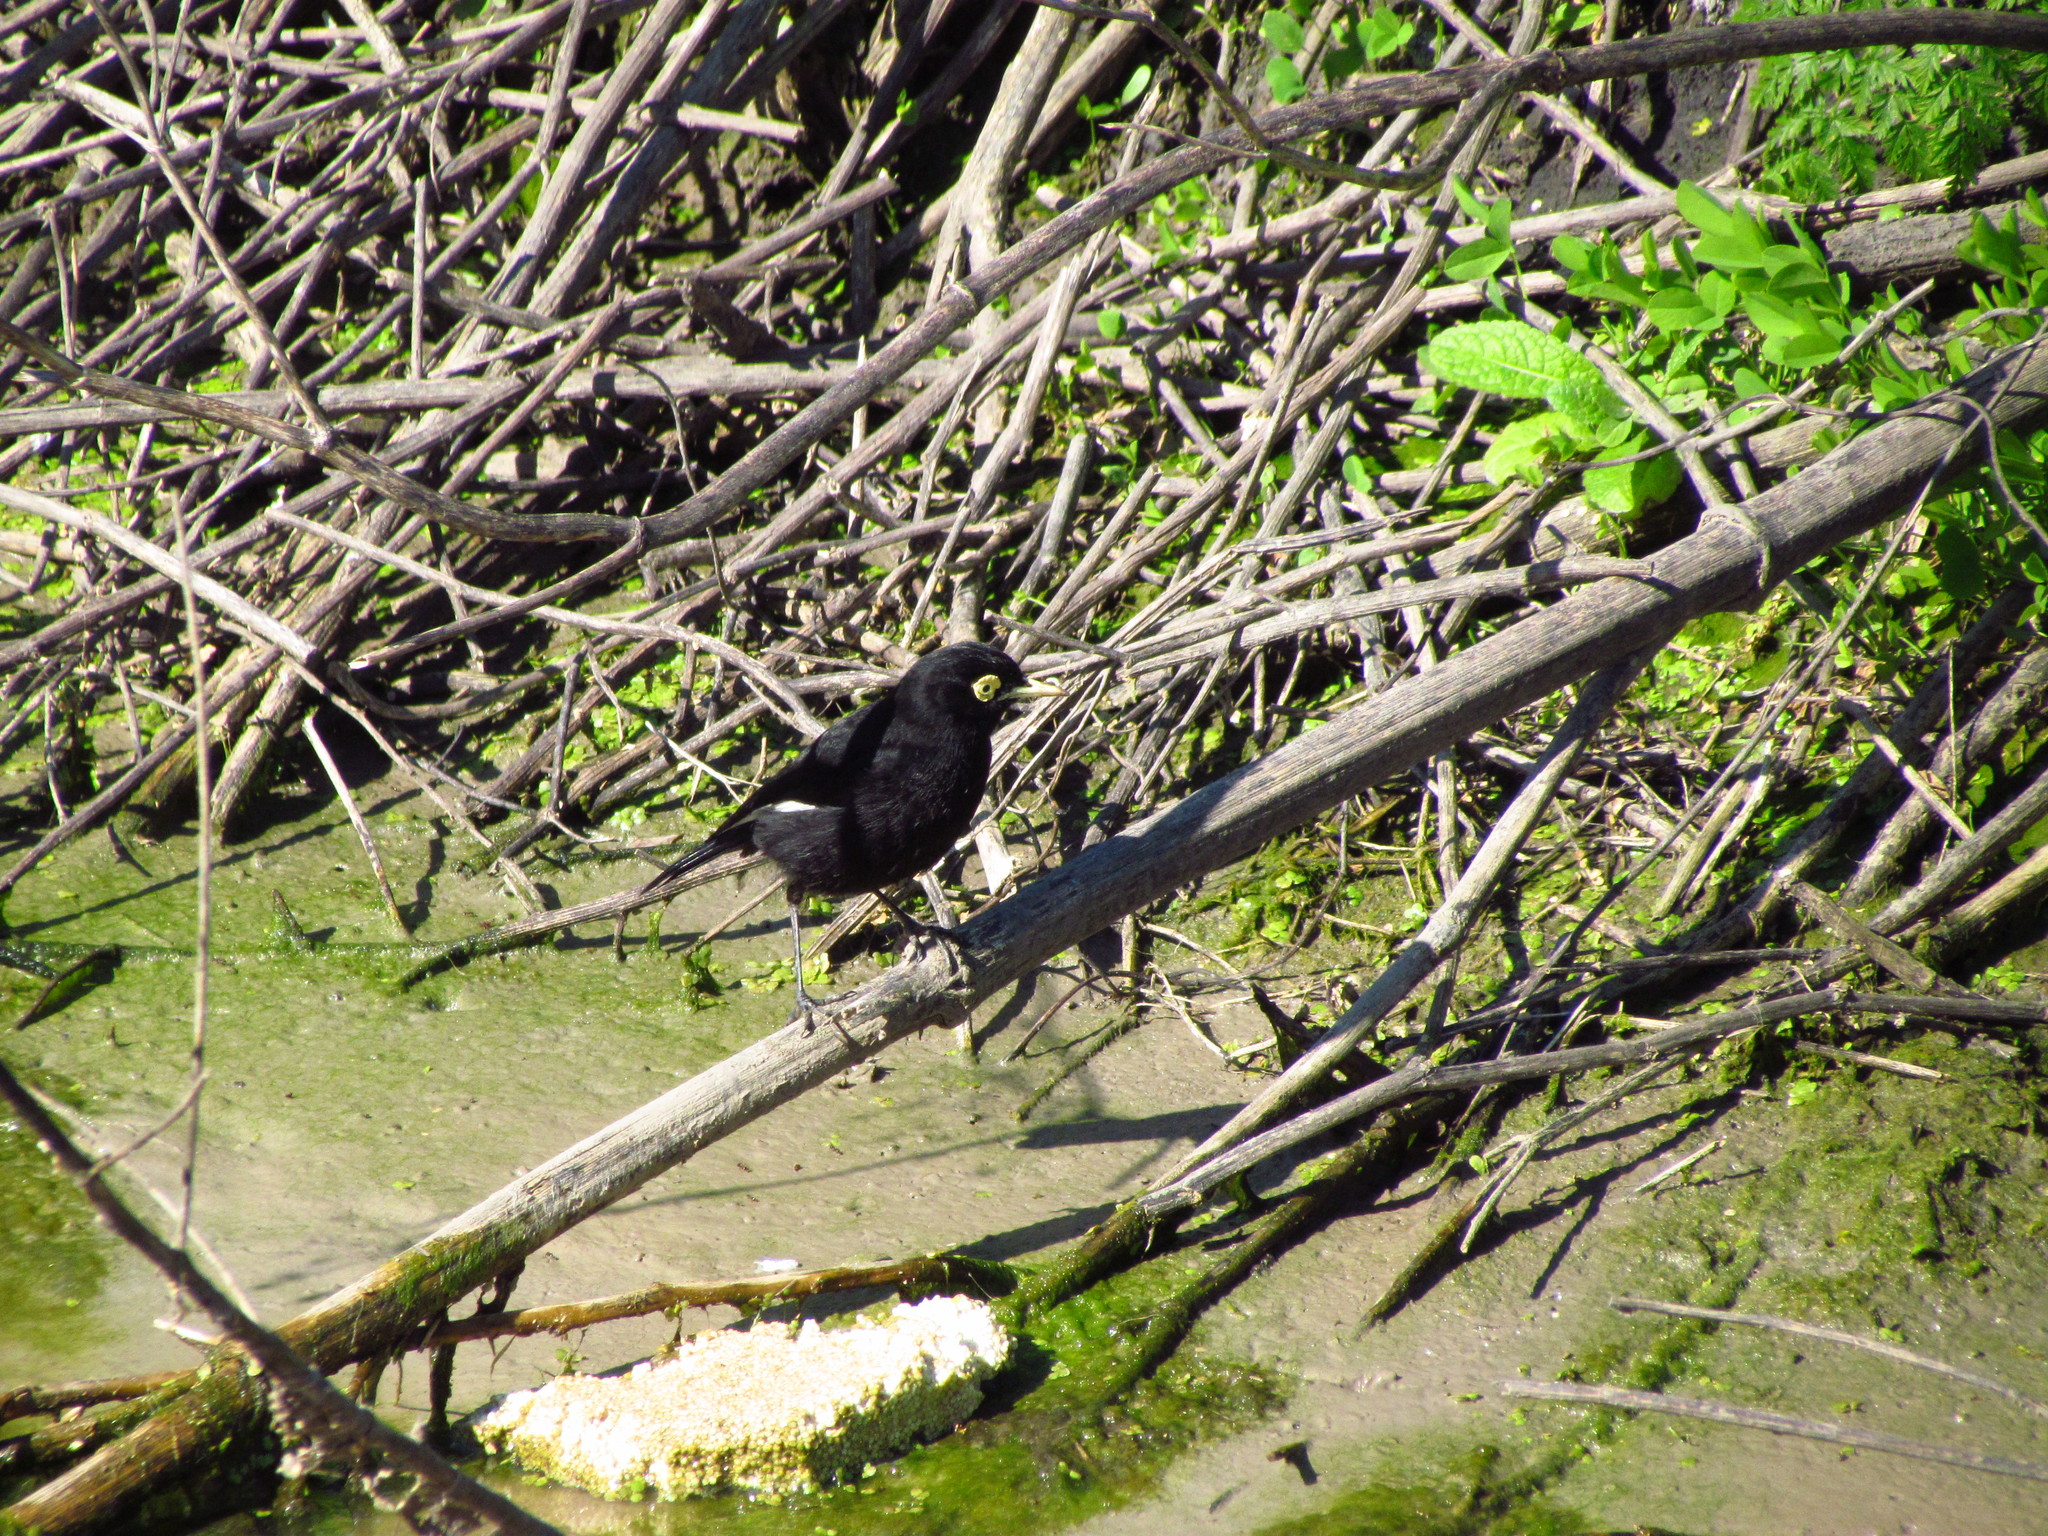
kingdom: Animalia
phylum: Chordata
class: Aves
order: Passeriformes
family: Tyrannidae
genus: Hymenops
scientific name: Hymenops perspicillatus
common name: Spectacled tyrant
